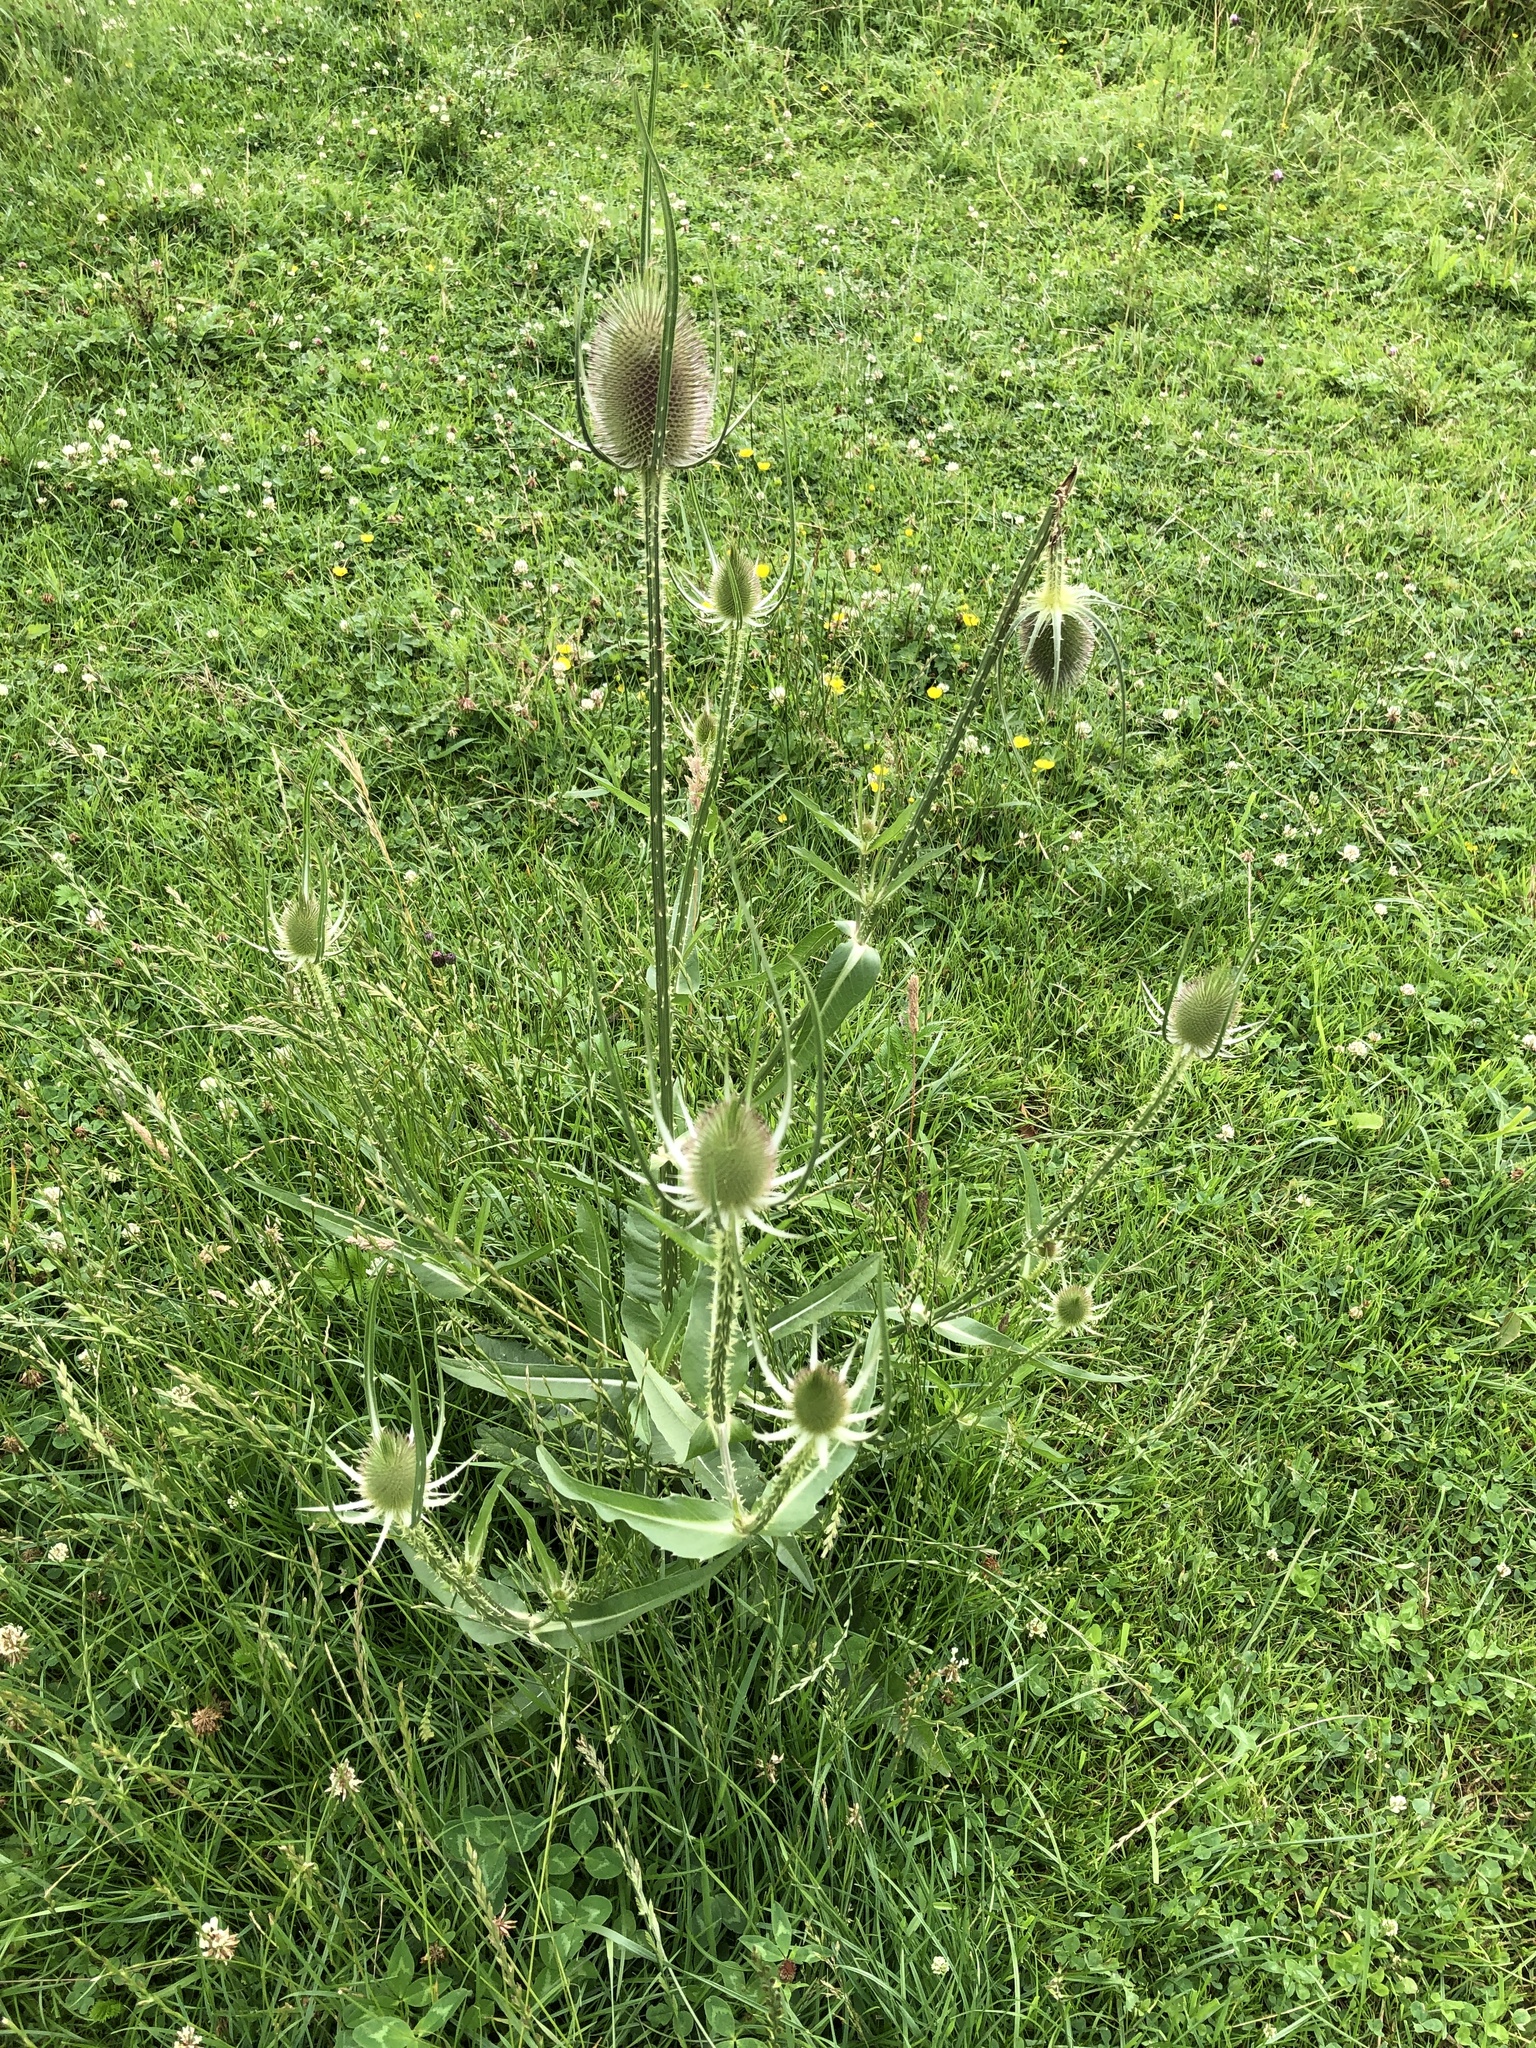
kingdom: Plantae
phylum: Tracheophyta
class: Magnoliopsida
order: Dipsacales
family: Caprifoliaceae
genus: Dipsacus
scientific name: Dipsacus fullonum
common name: Teasel
